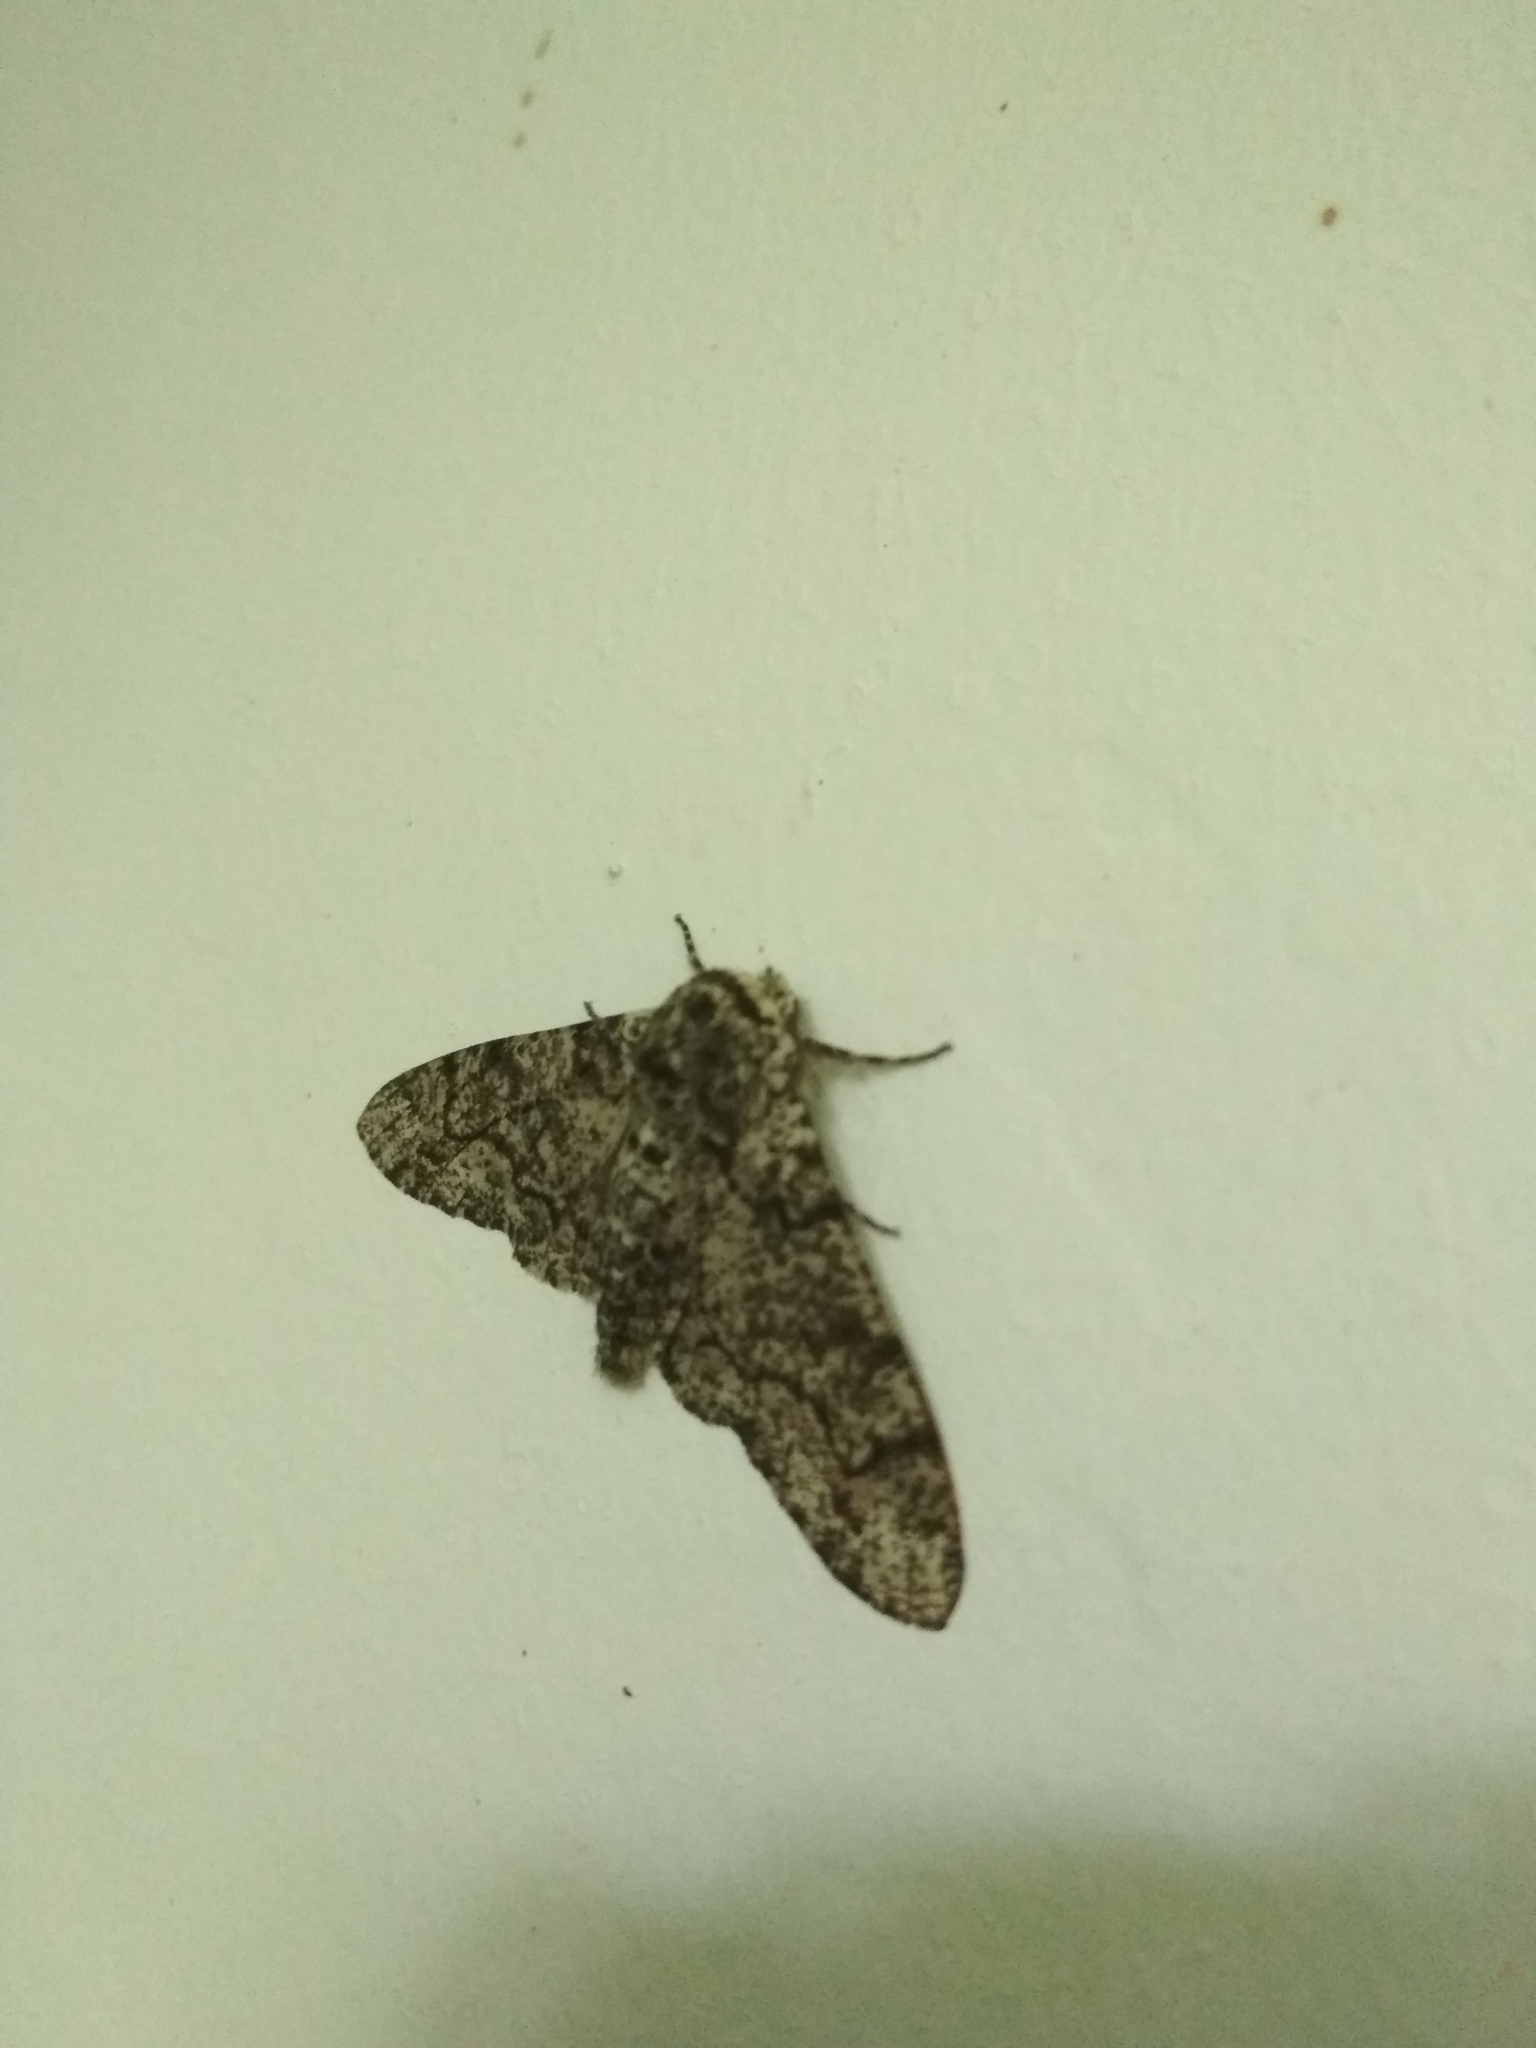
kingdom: Animalia
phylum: Arthropoda
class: Insecta
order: Lepidoptera
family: Geometridae
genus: Biston
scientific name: Biston betularia
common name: Peppered moth
